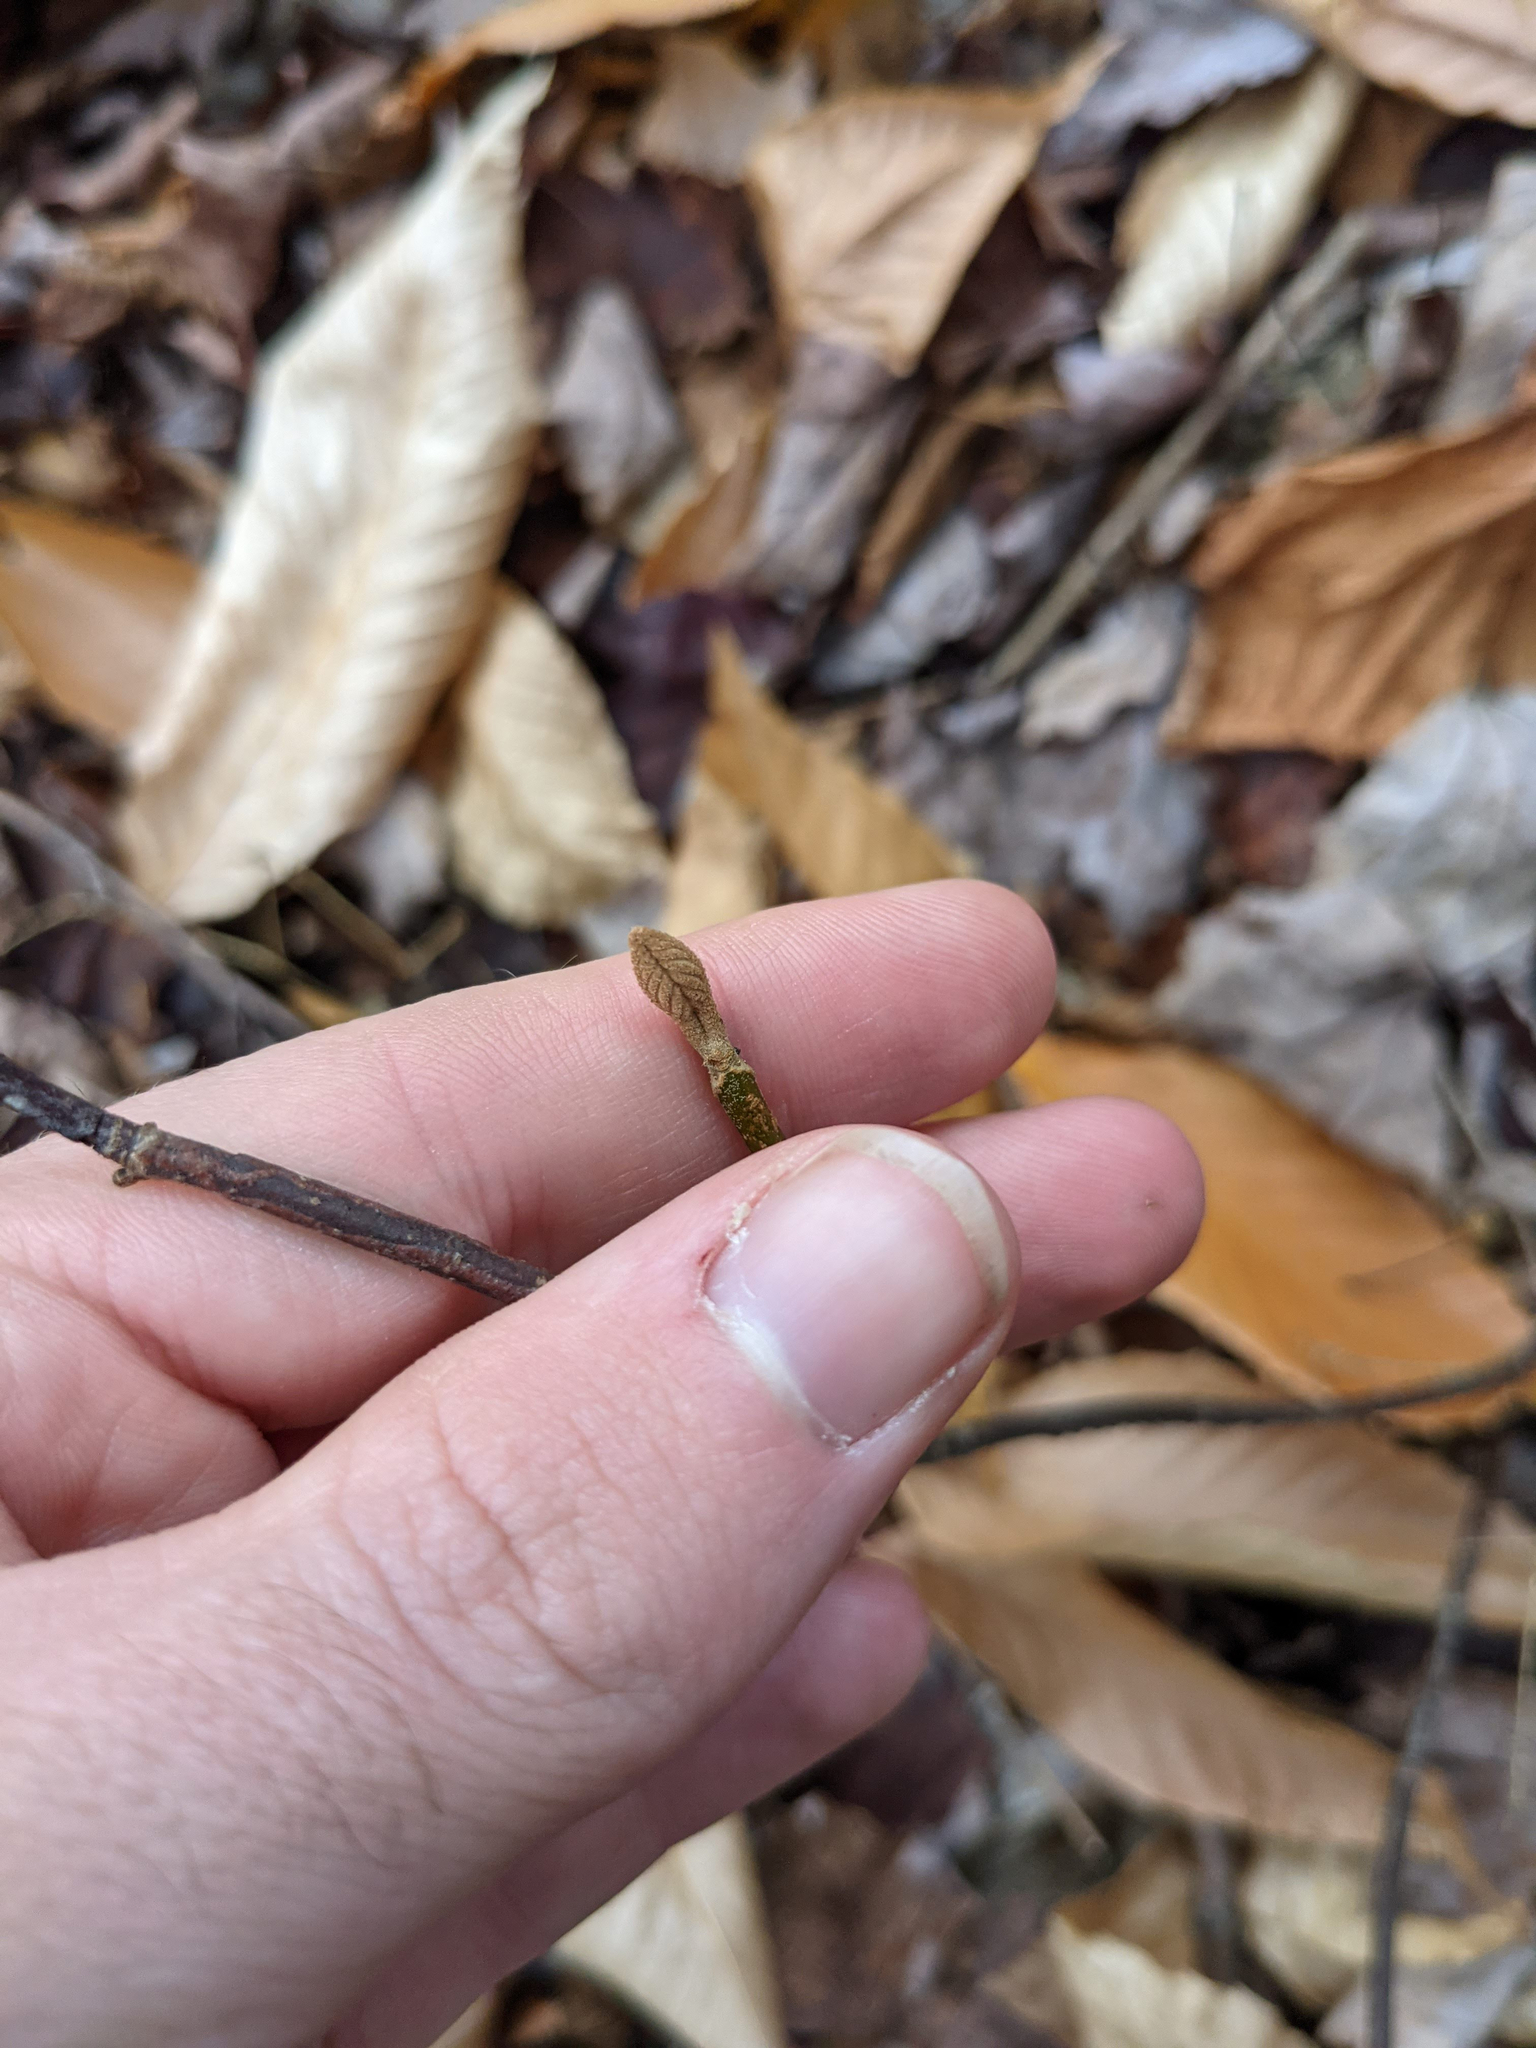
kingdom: Plantae
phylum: Tracheophyta
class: Magnoliopsida
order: Dipsacales
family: Viburnaceae
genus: Viburnum
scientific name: Viburnum lantanoides
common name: Hobblebush
